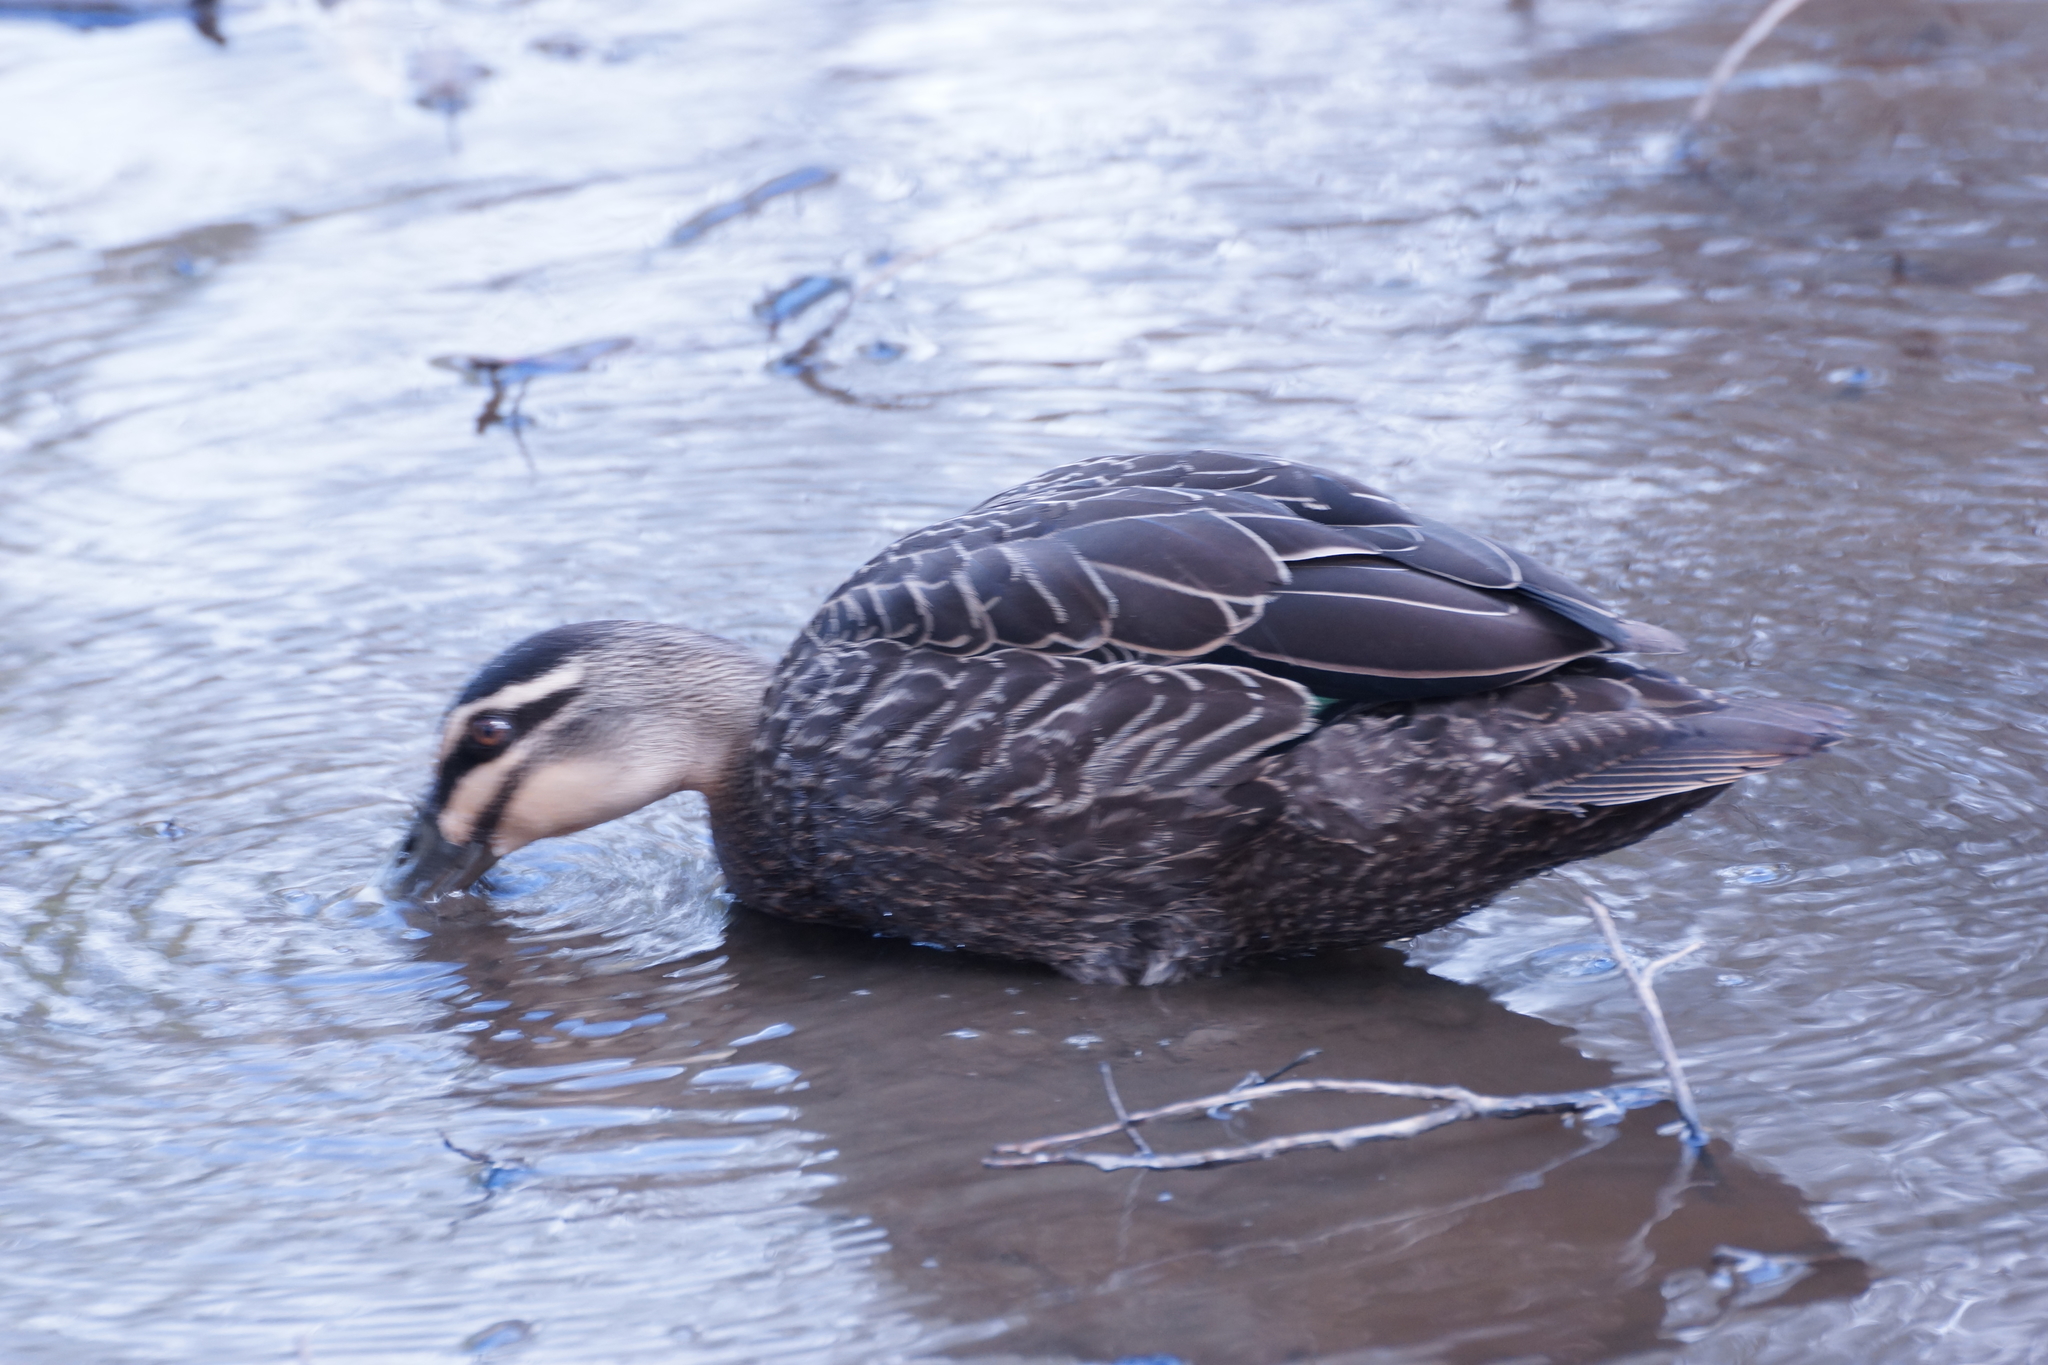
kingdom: Animalia
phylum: Chordata
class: Aves
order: Anseriformes
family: Anatidae
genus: Anas
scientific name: Anas superciliosa
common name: Pacific black duck
